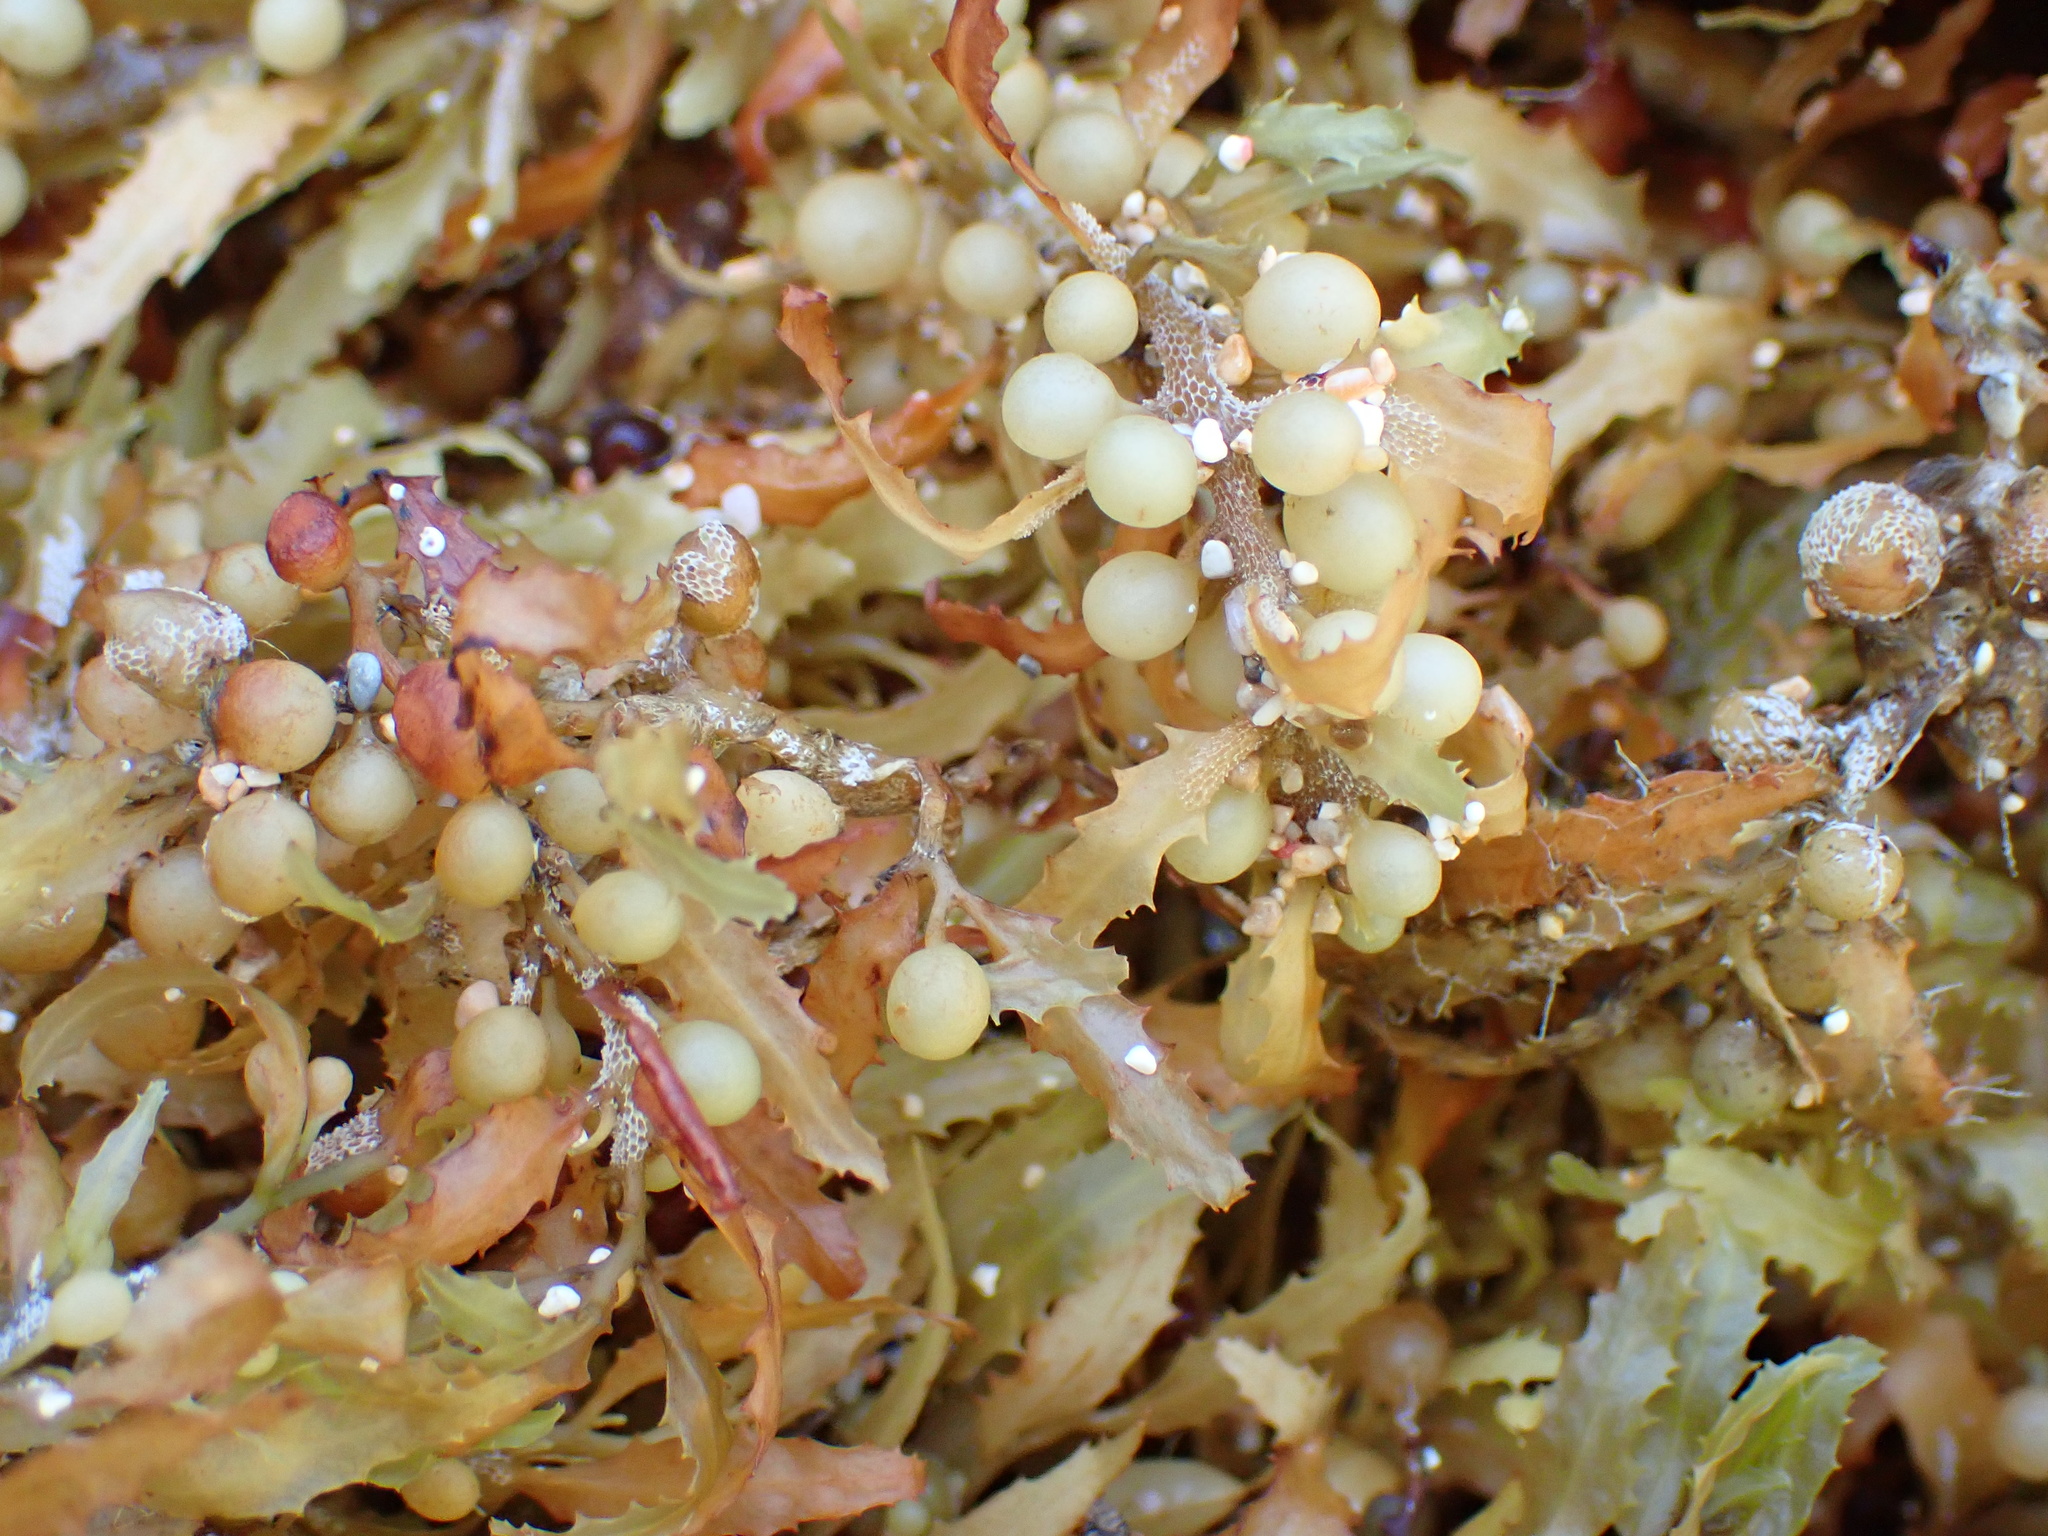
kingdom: Chromista
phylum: Ochrophyta
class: Phaeophyceae
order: Fucales
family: Sargassaceae
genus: Sargassum
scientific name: Sargassum fluitans
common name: Sargassum seaweed
